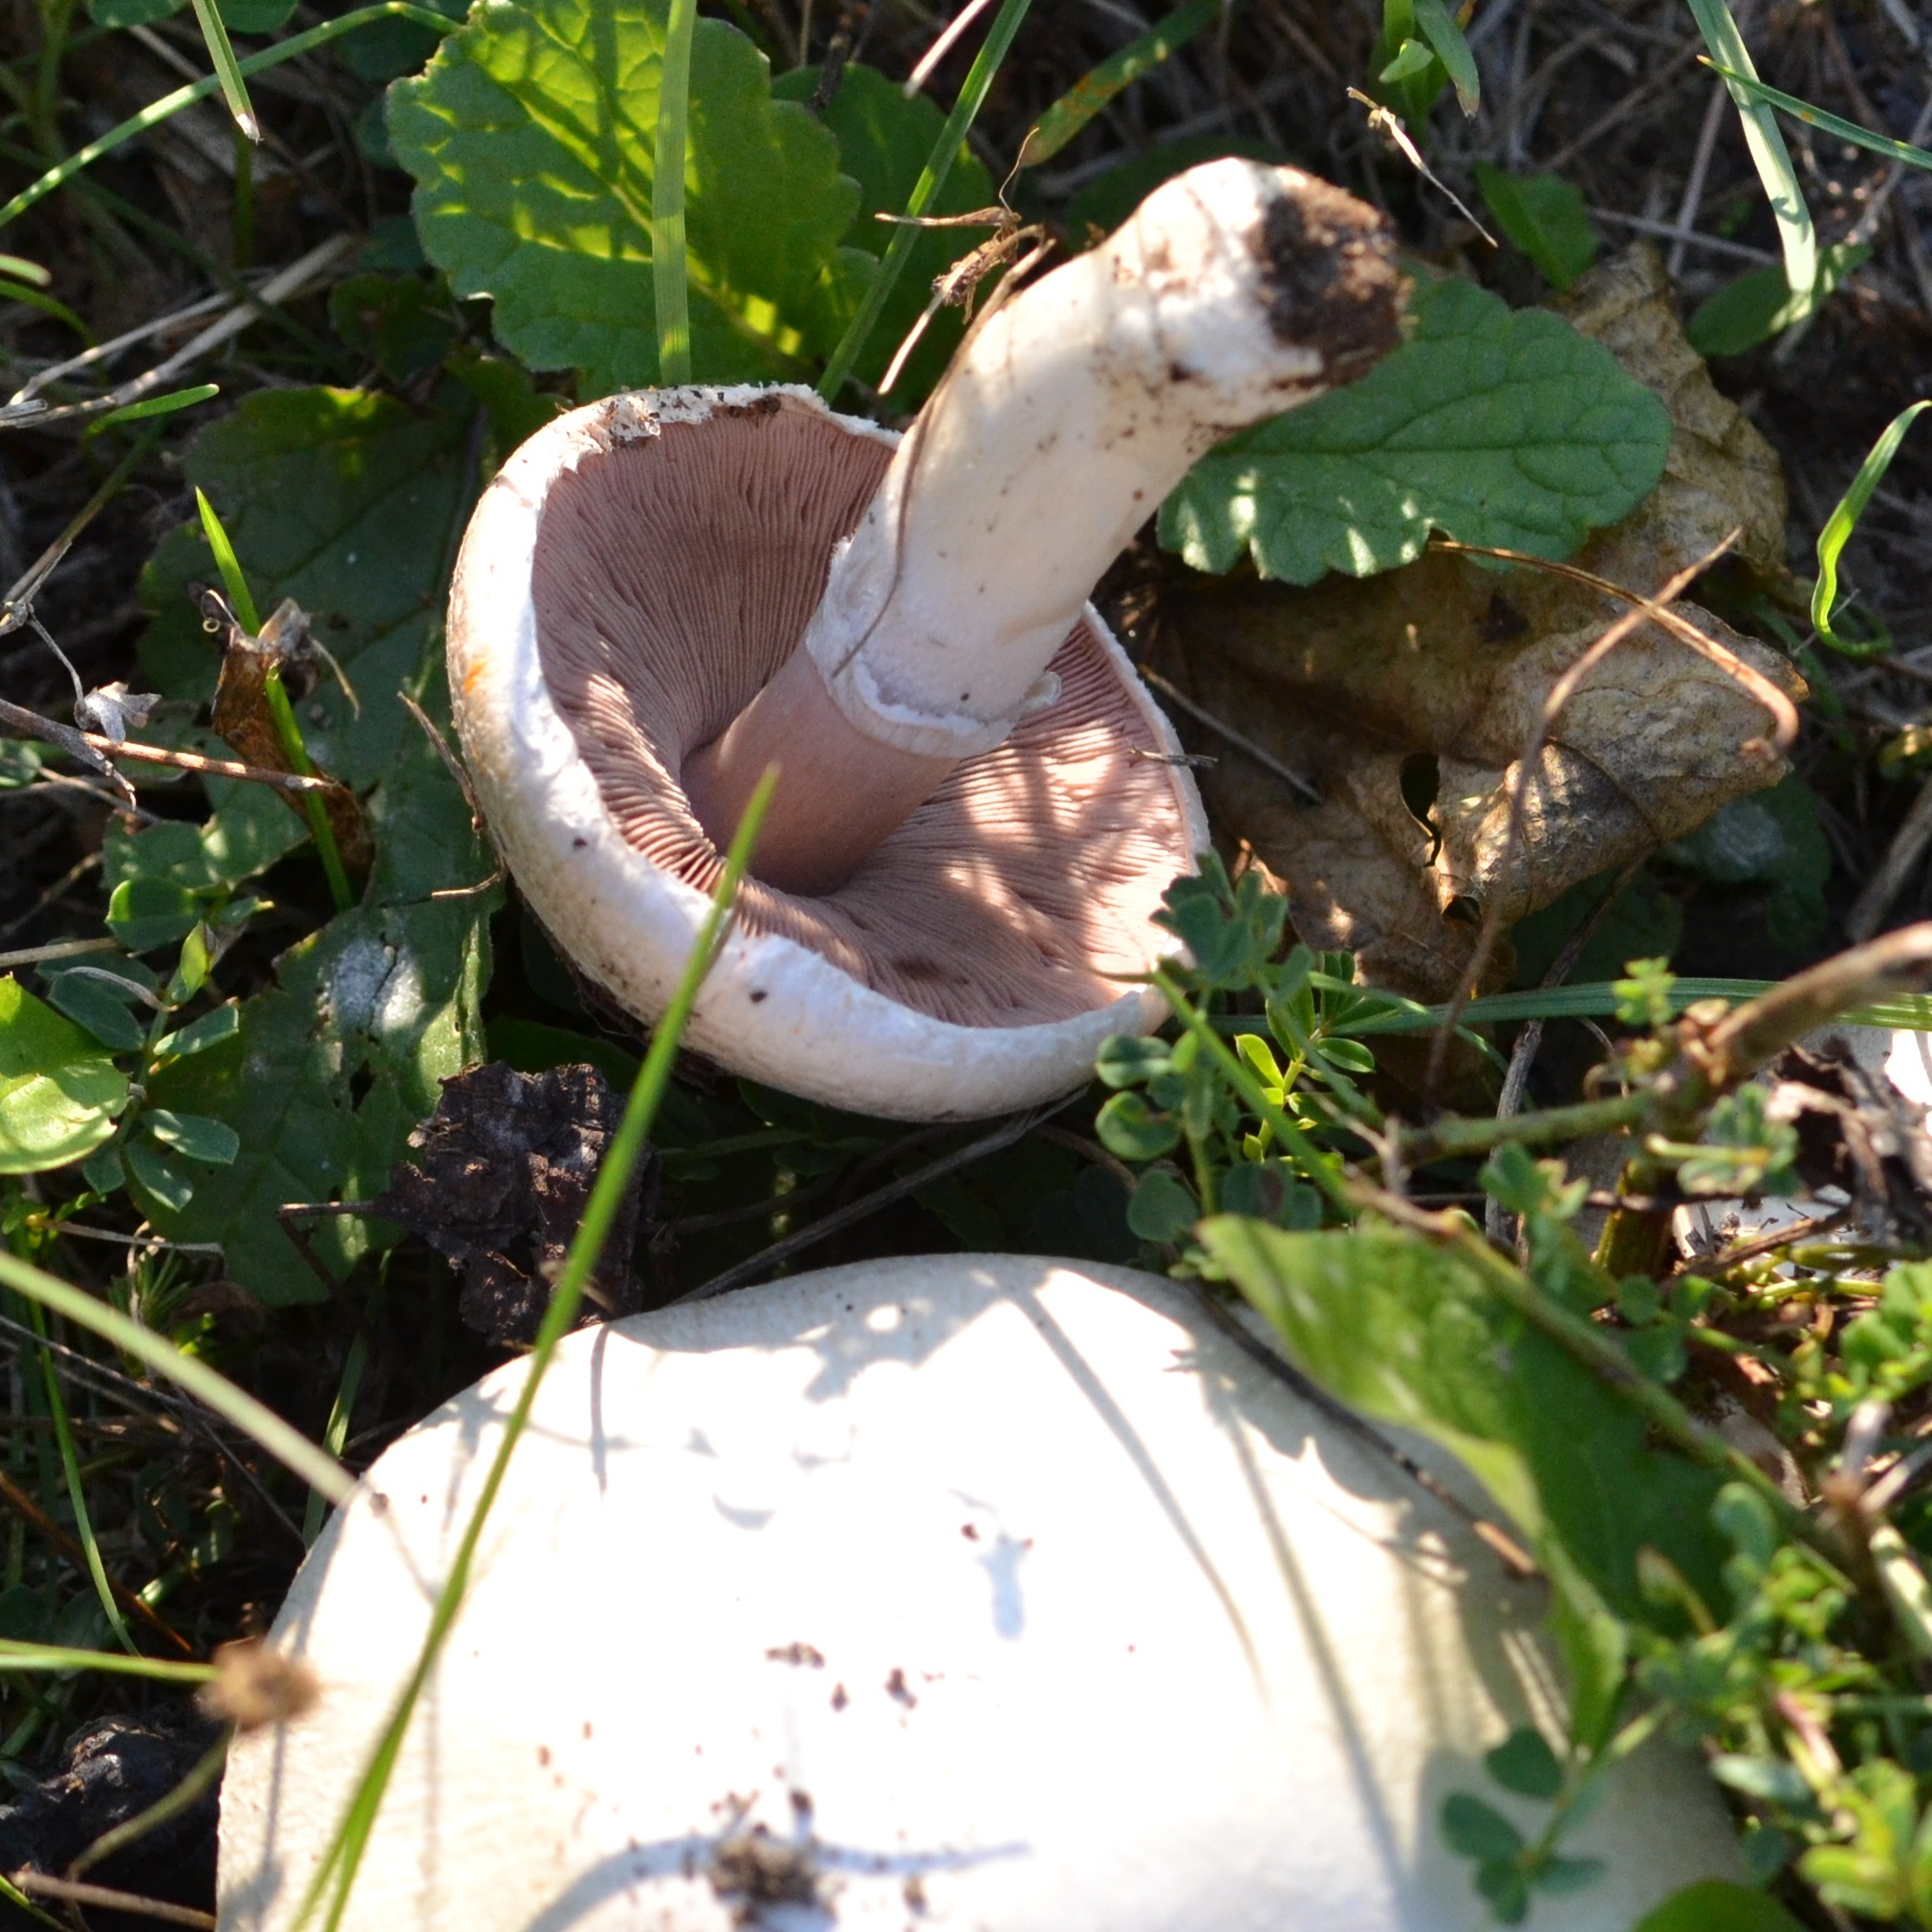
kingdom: Fungi
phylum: Basidiomycota
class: Agaricomycetes
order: Agaricales
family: Agaricaceae
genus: Agaricus
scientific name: Agaricus campestris
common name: Field mushroom
